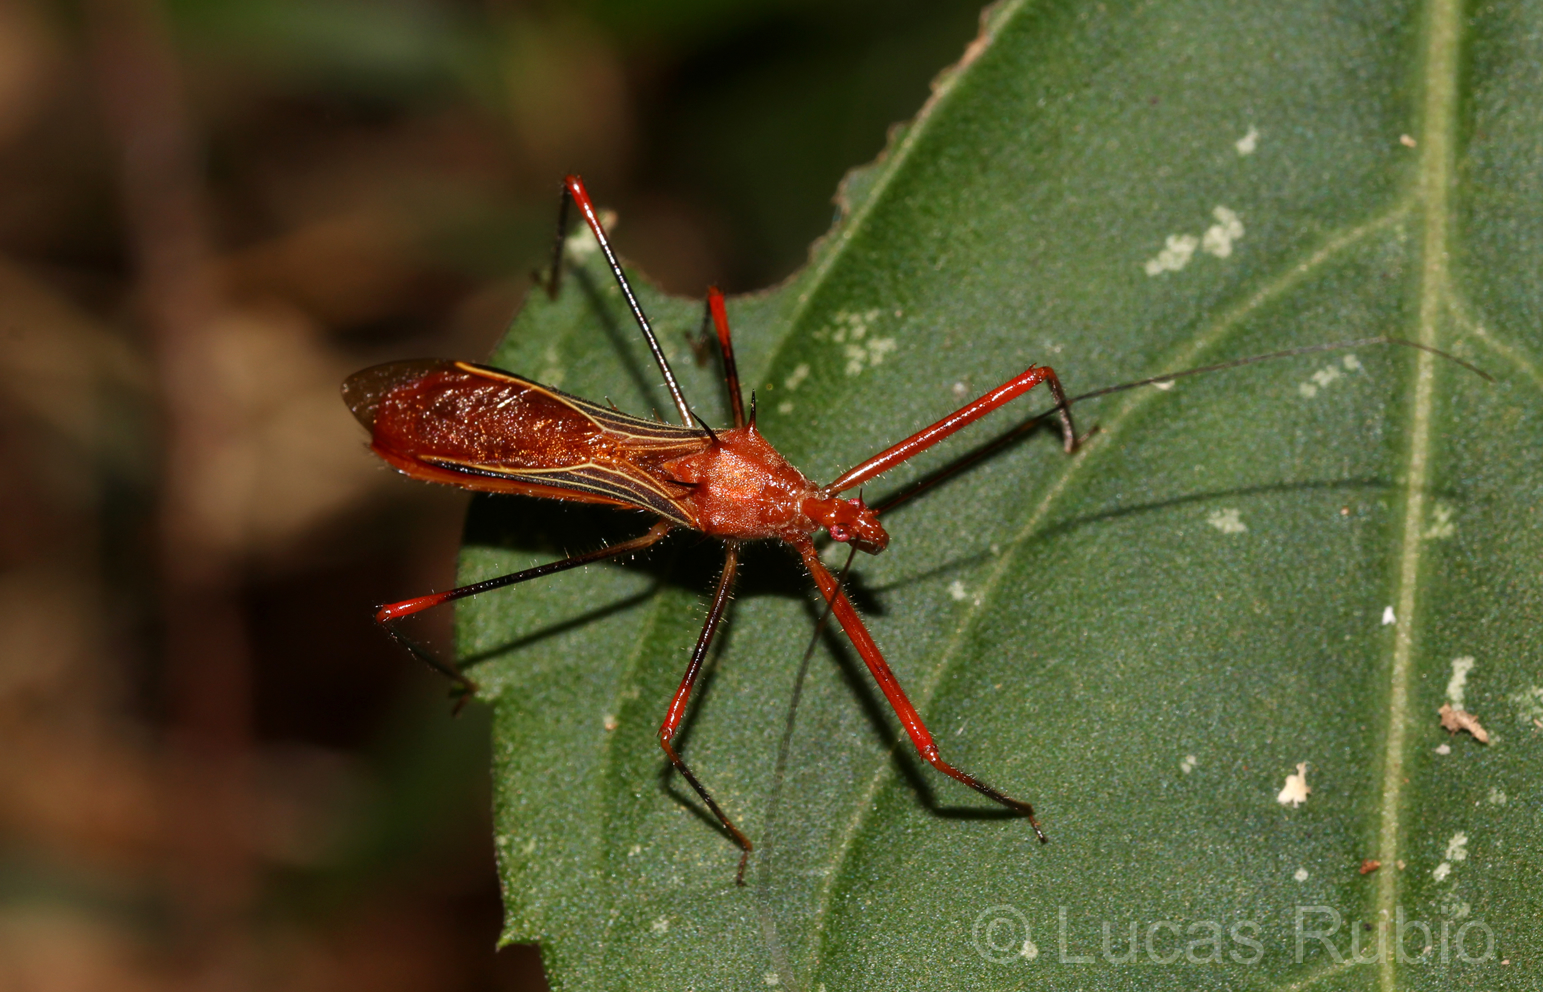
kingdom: Animalia
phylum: Arthropoda
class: Insecta
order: Hemiptera
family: Reduviidae
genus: Ricolla
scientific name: Ricolla quadrispinosa
